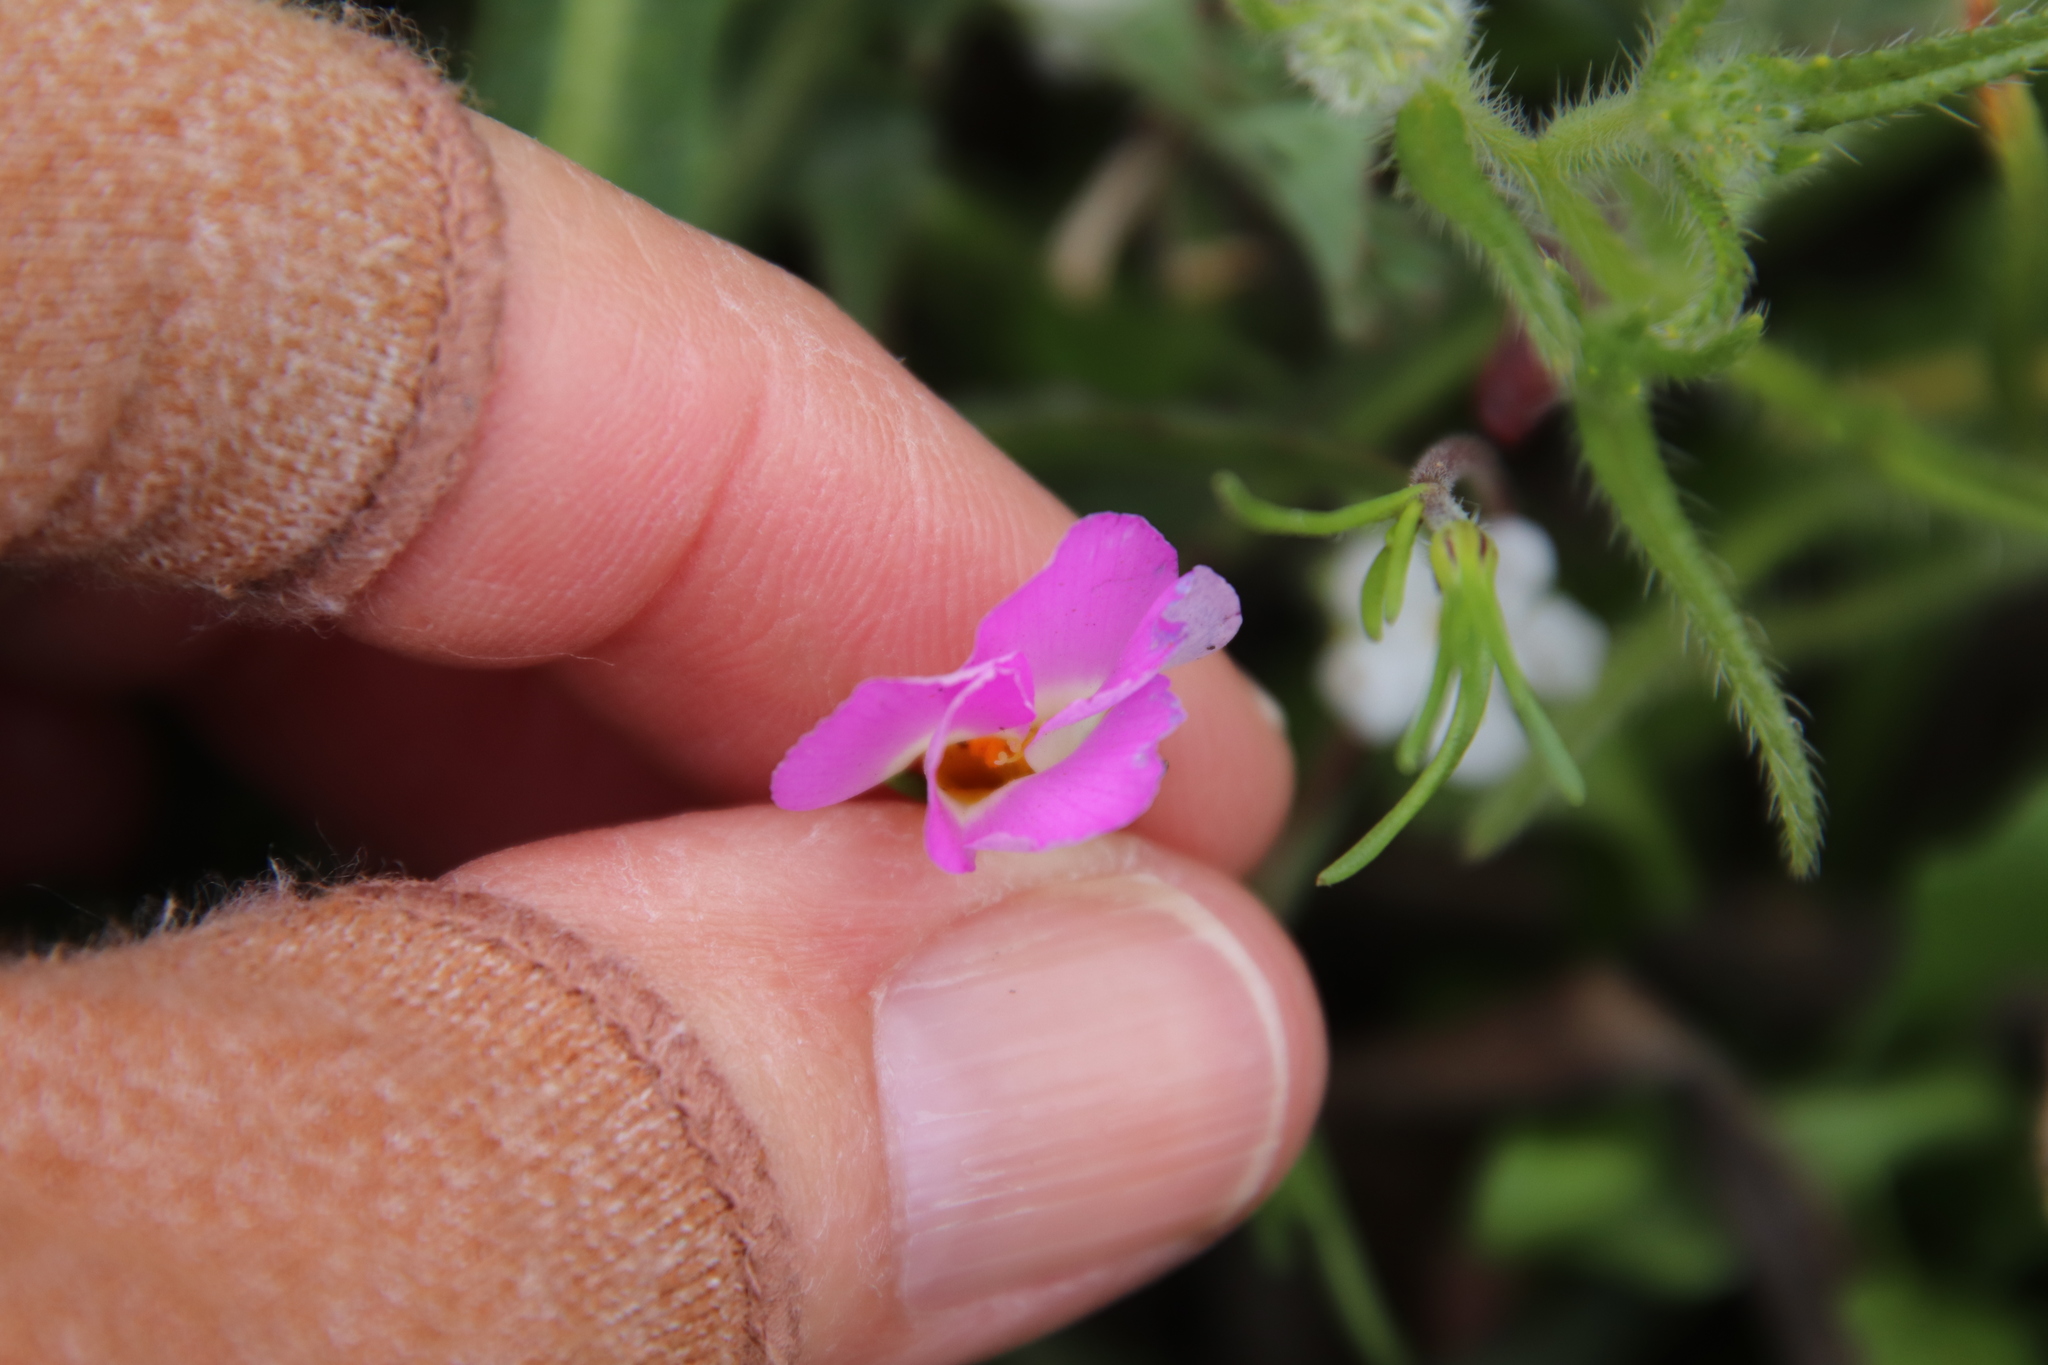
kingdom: Plantae
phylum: Tracheophyta
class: Magnoliopsida
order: Ericales
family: Polemoniaceae
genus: Linanthus
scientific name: Linanthus dianthiflorus
